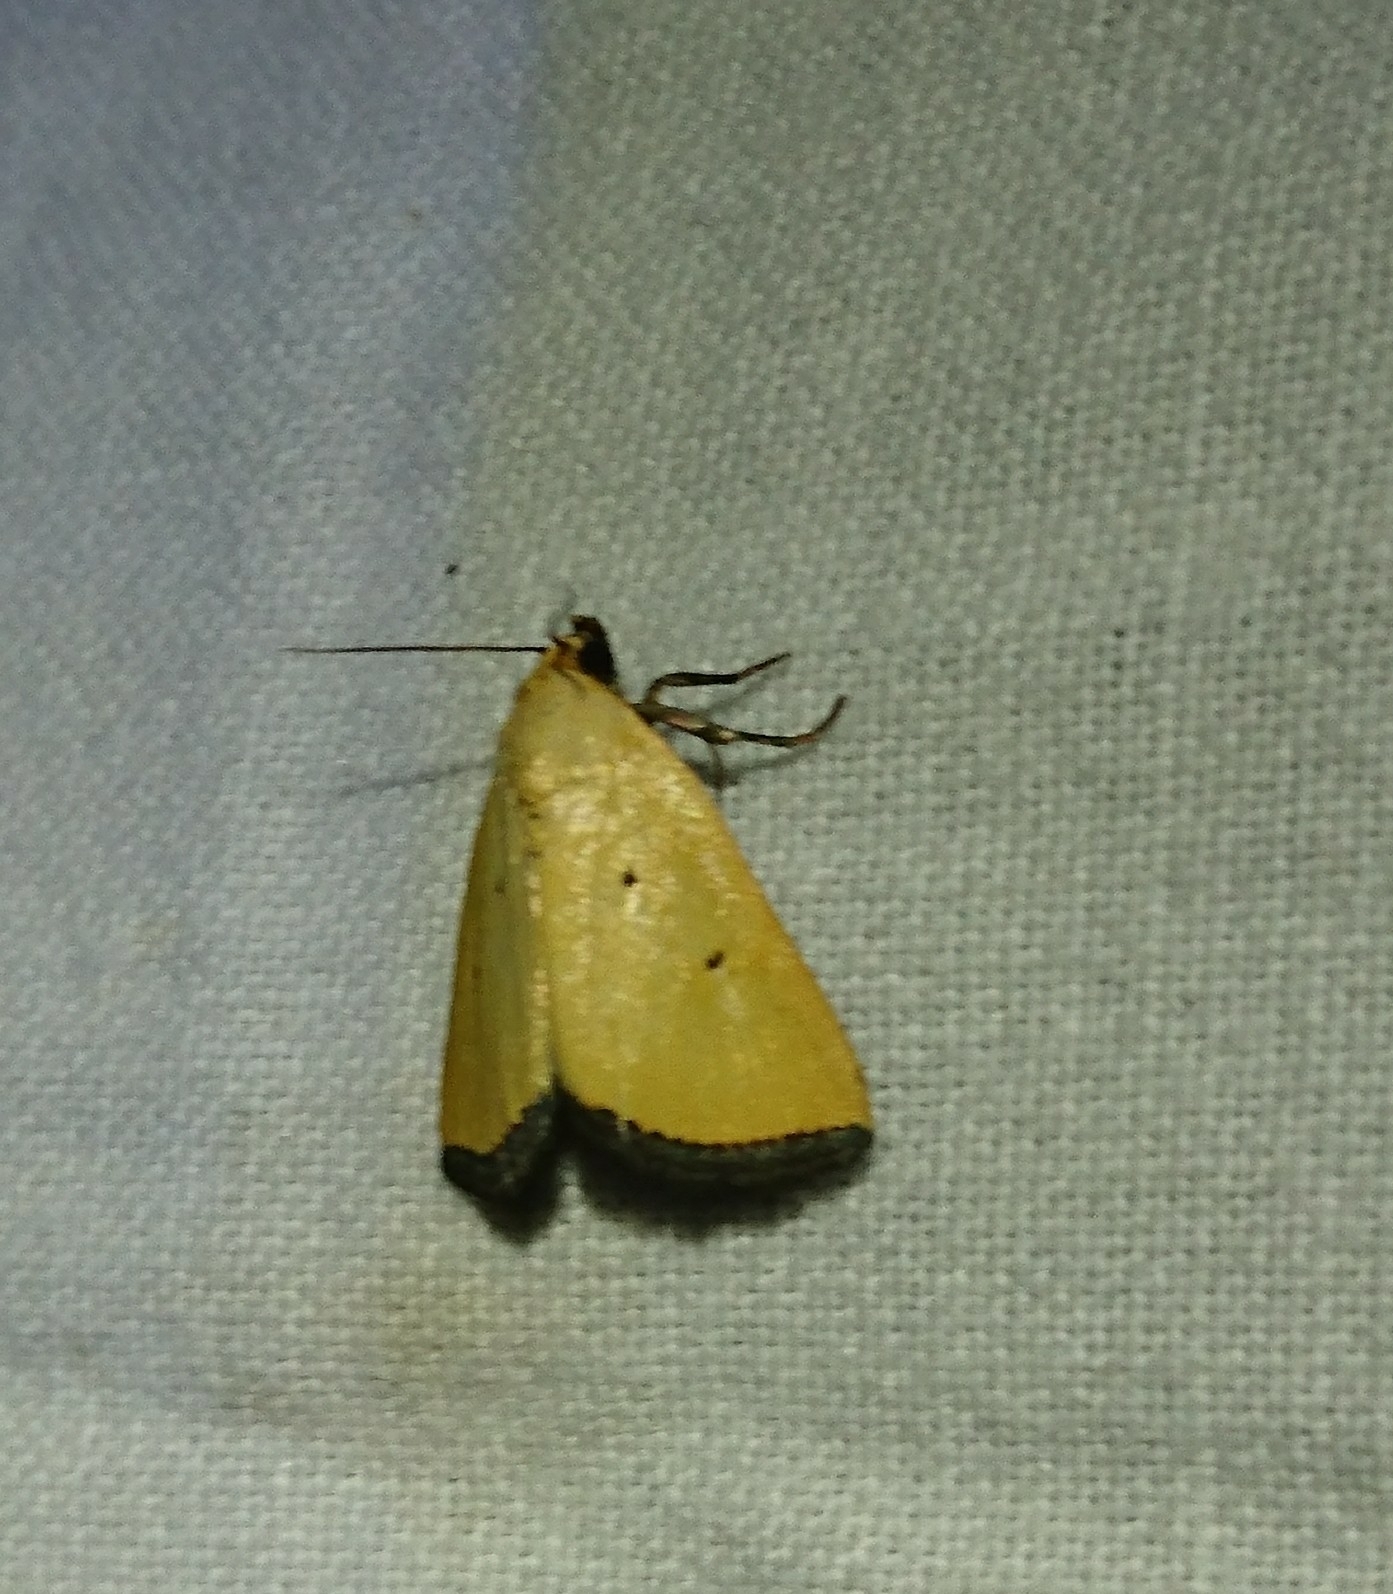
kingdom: Animalia
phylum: Arthropoda
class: Insecta
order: Lepidoptera
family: Noctuidae
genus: Marimatha
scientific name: Marimatha nigrofimbria
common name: Black-bordered lemon moth
